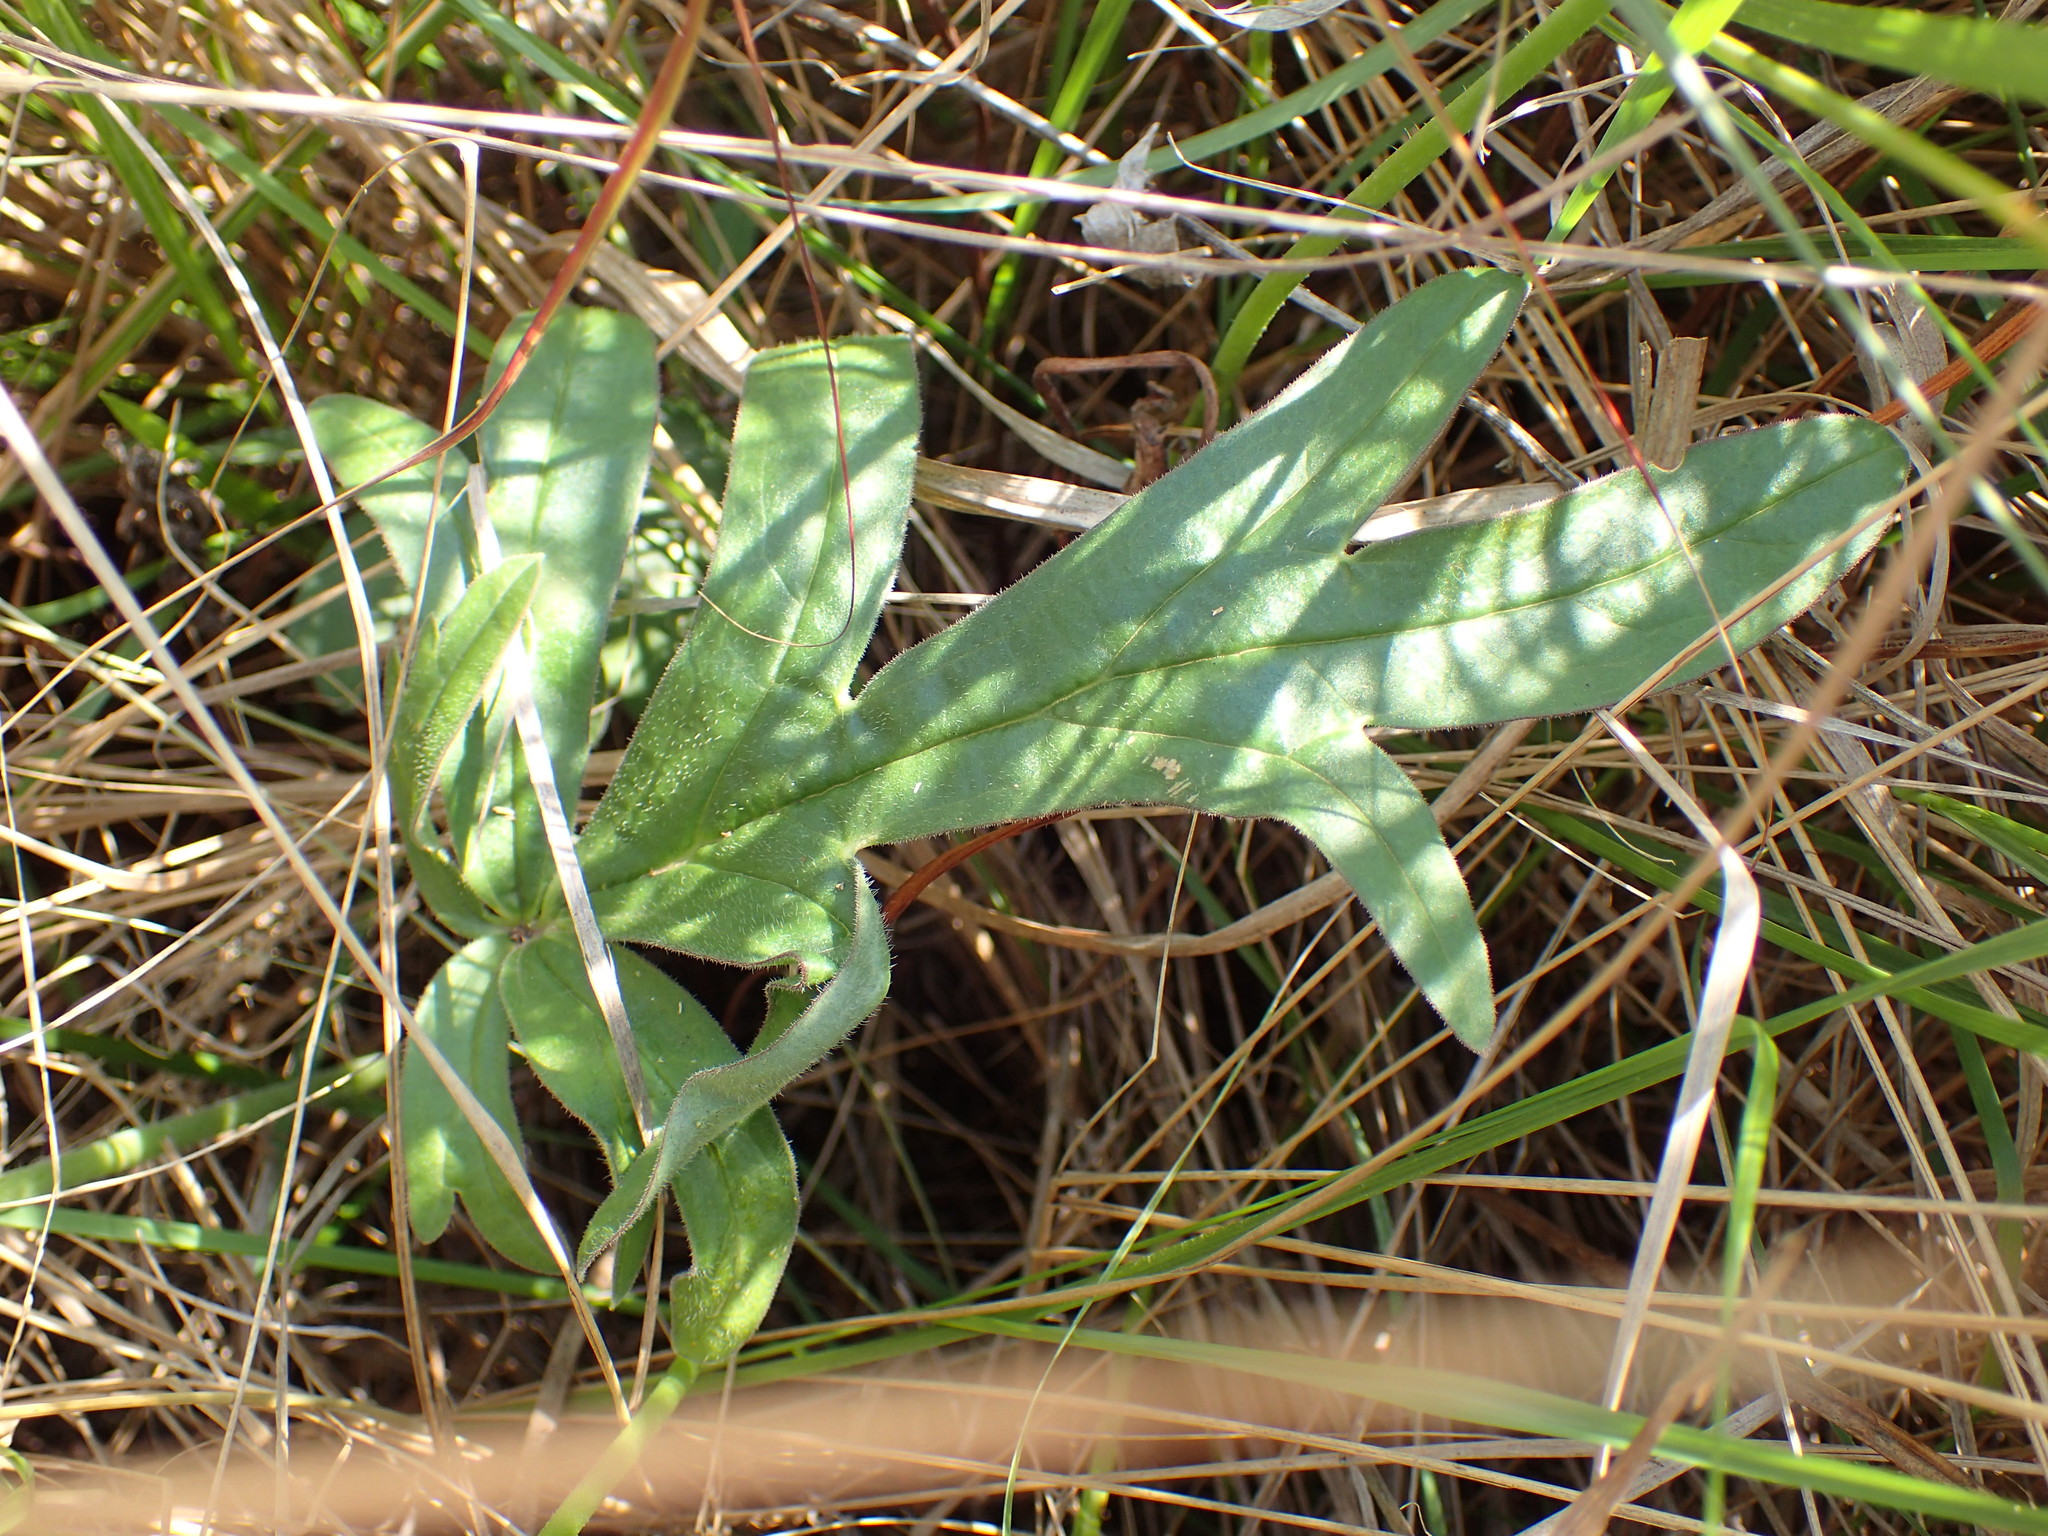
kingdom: Plantae
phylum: Tracheophyta
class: Magnoliopsida
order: Geraniales
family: Geraniaceae
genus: Pelargonium
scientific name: Pelargonium luridum
